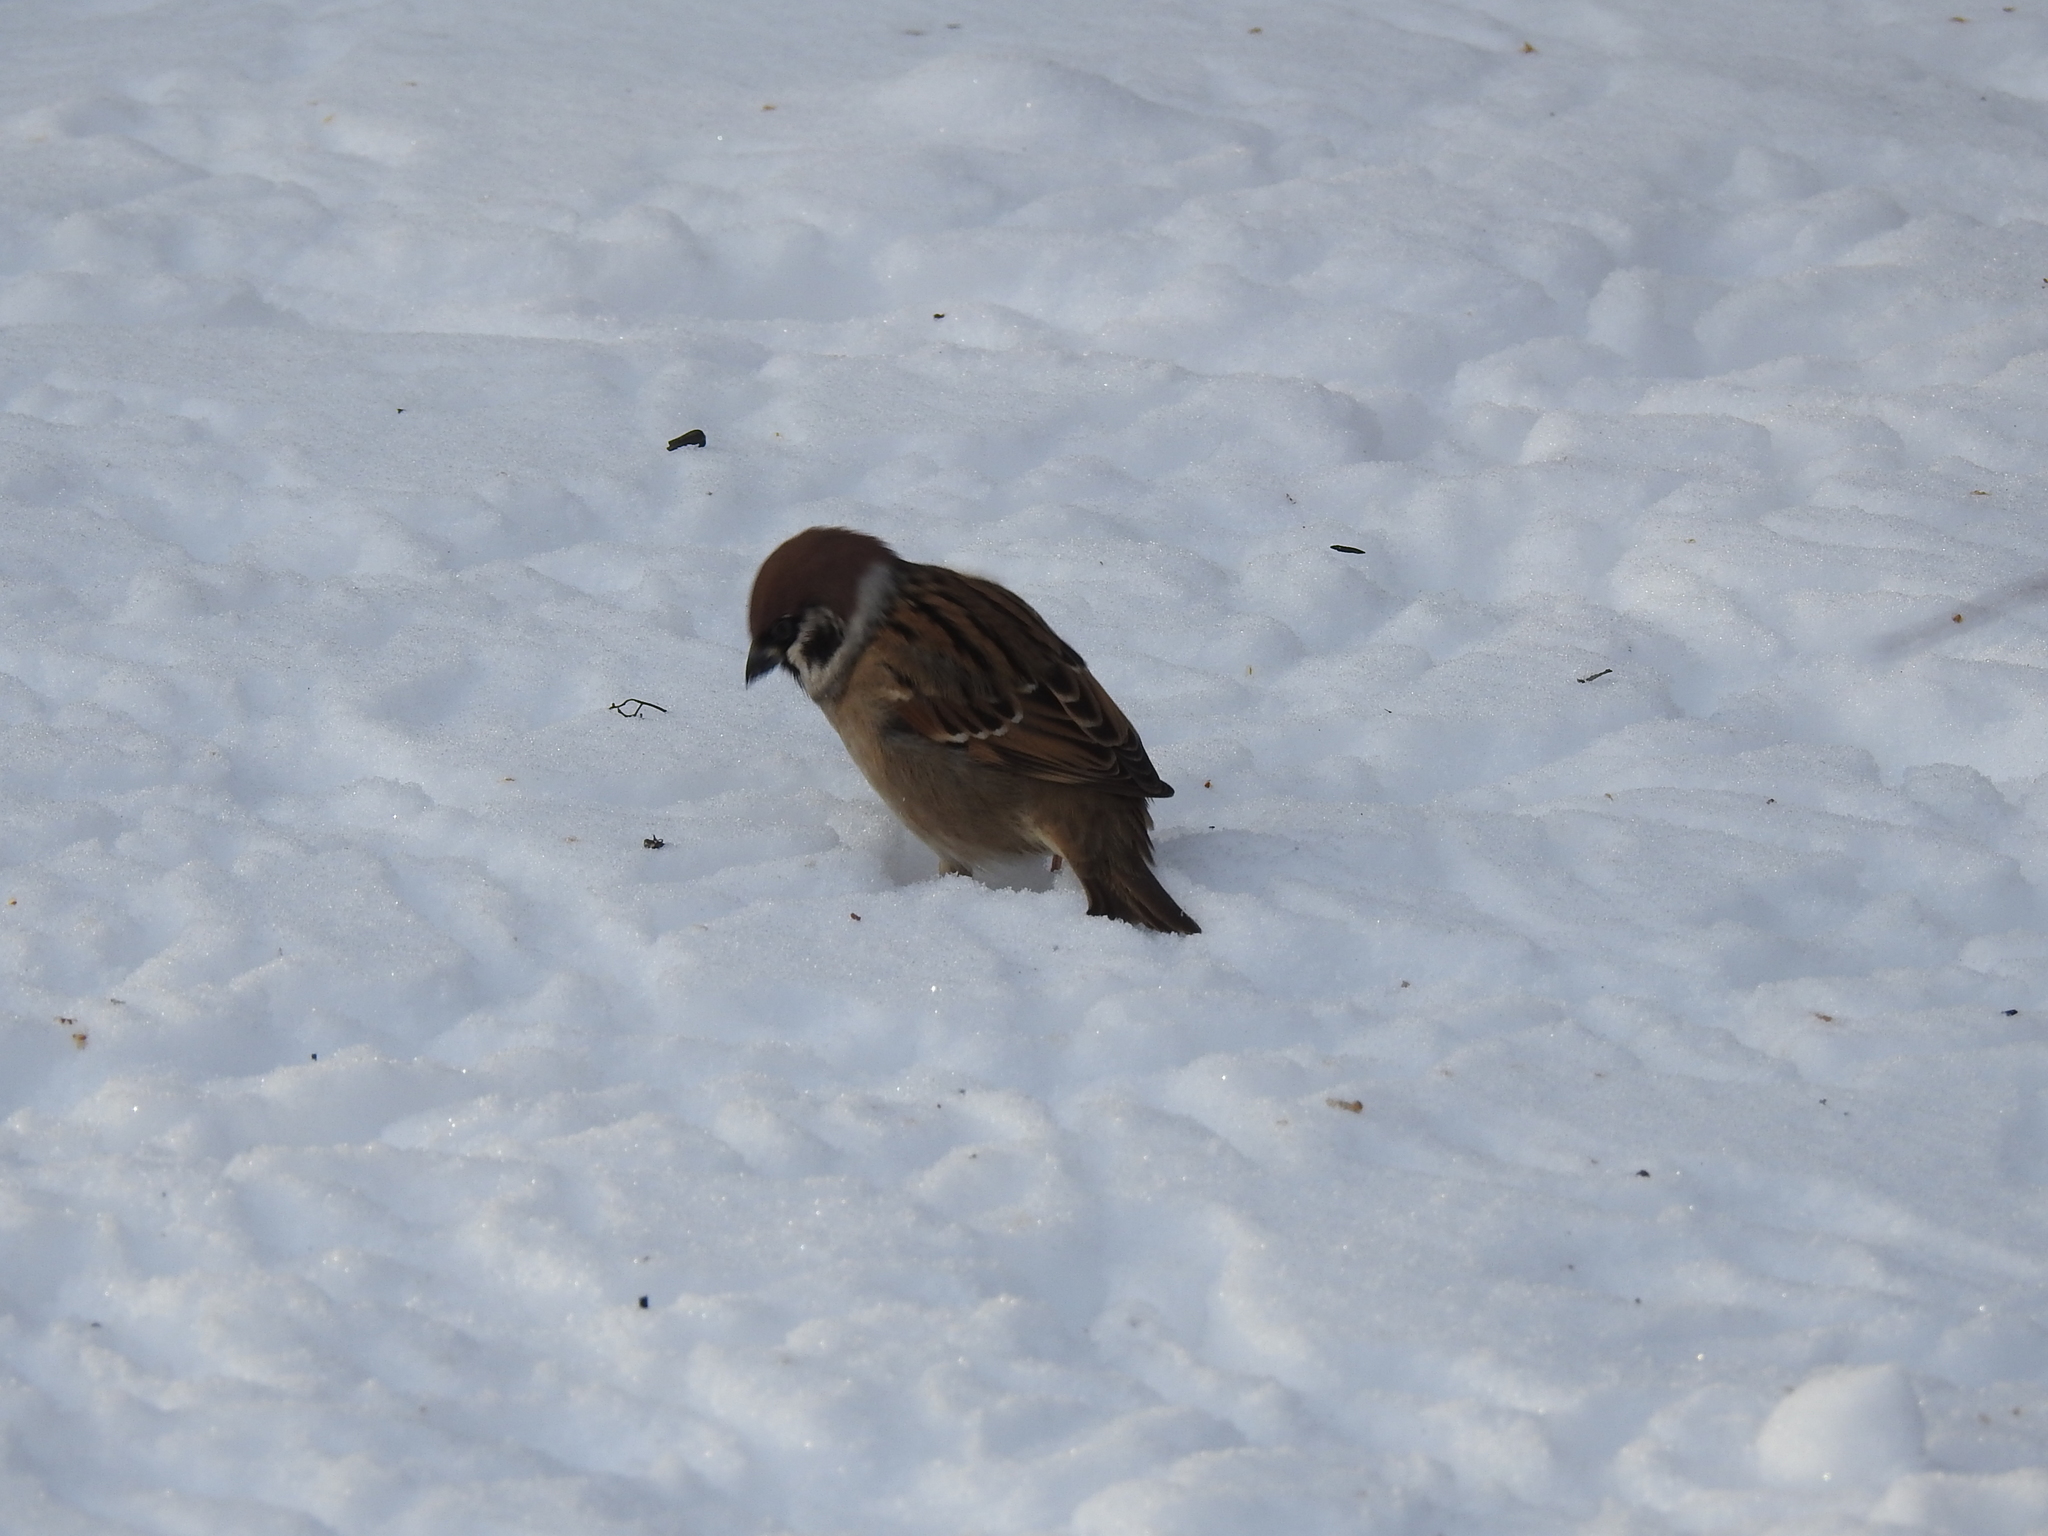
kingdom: Animalia
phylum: Chordata
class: Aves
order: Passeriformes
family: Passeridae
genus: Passer
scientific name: Passer montanus
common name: Eurasian tree sparrow
